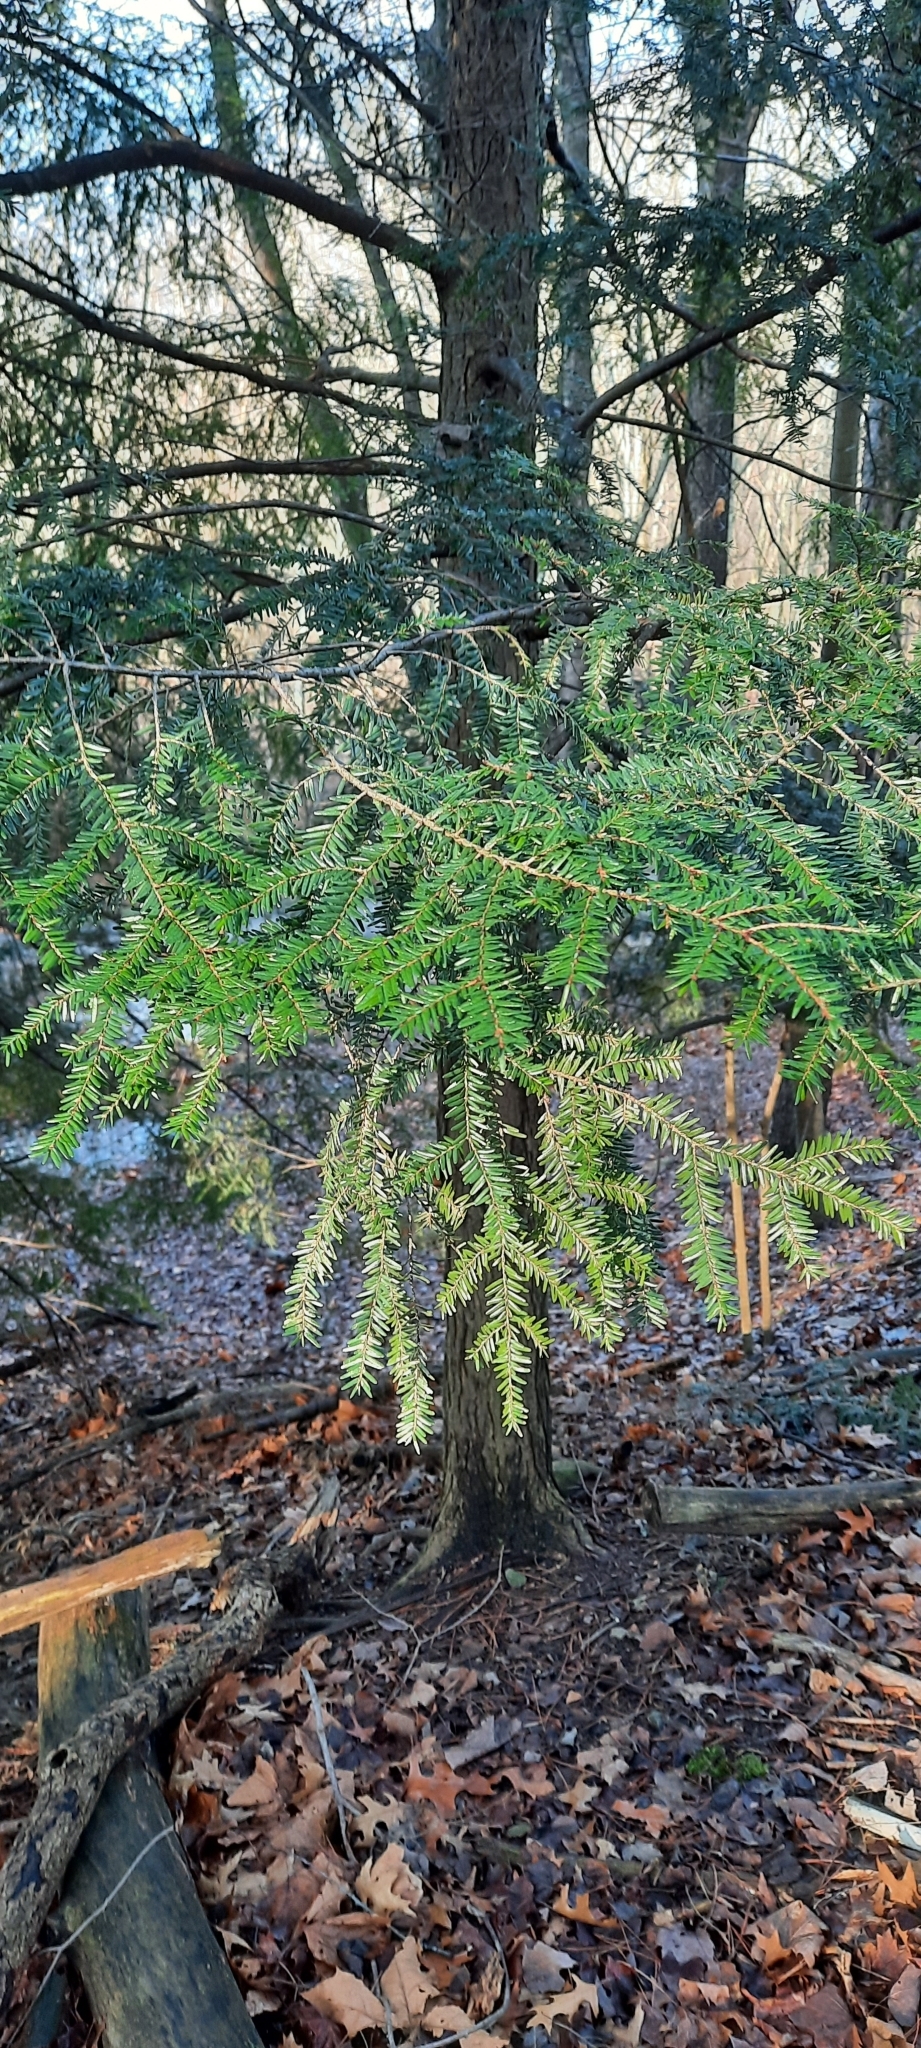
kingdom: Plantae
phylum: Tracheophyta
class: Pinopsida
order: Pinales
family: Pinaceae
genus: Tsuga
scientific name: Tsuga canadensis
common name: Eastern hemlock
